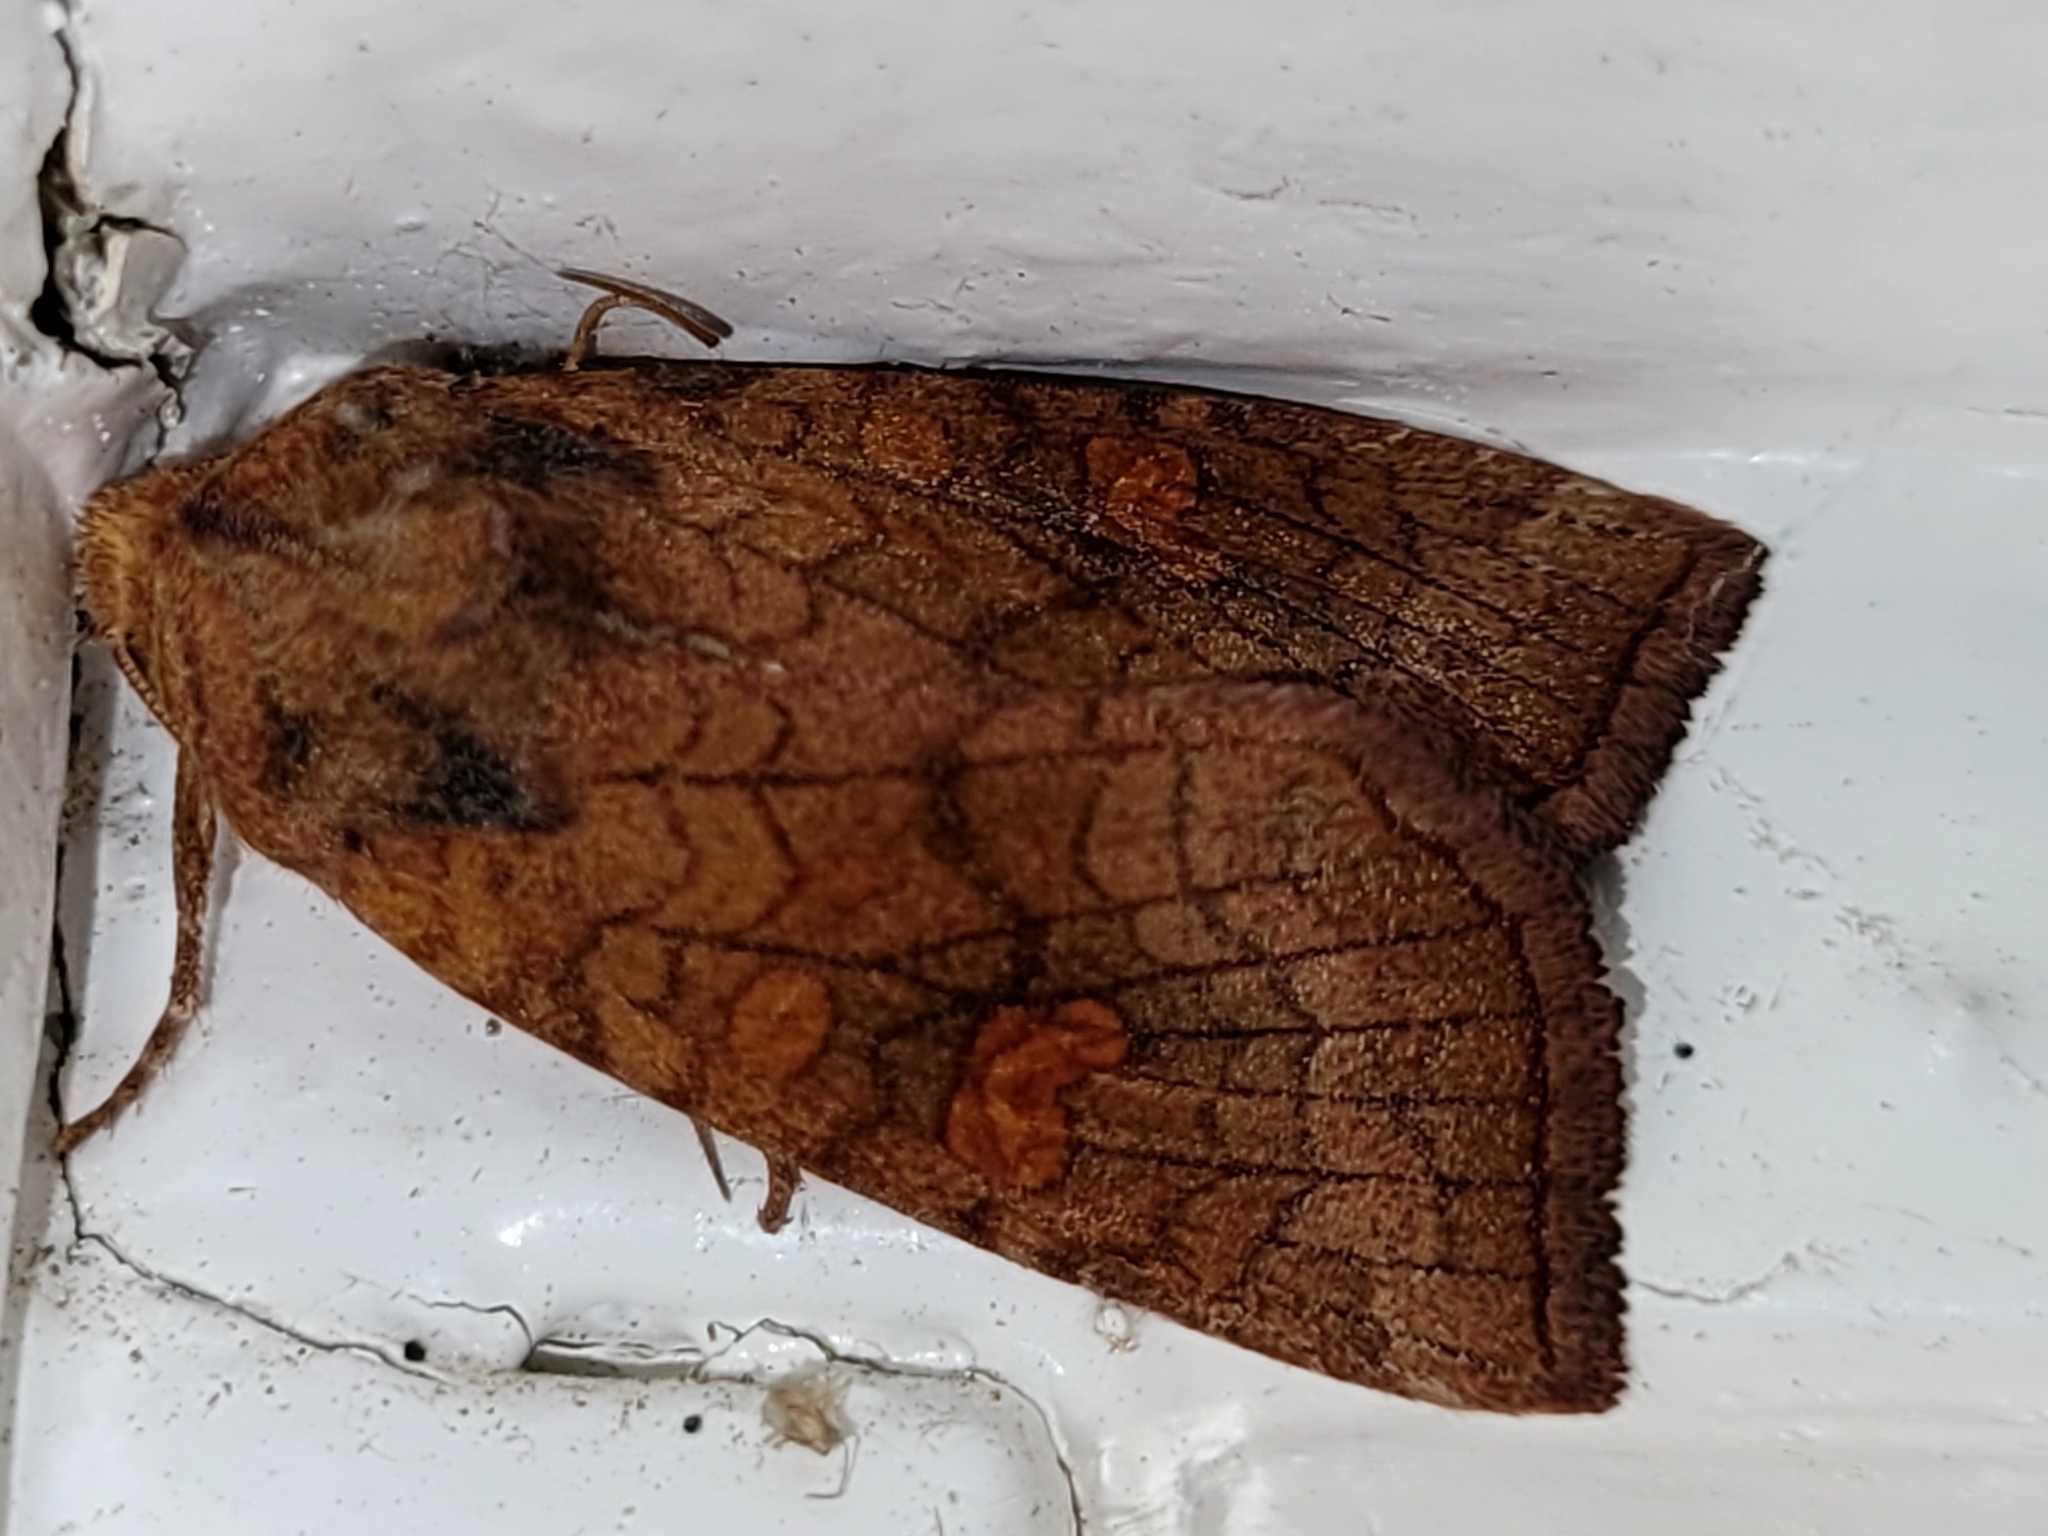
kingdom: Animalia
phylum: Arthropoda
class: Insecta
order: Lepidoptera
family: Noctuidae
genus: Amphipoea
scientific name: Amphipoea americana
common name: American ear moth
